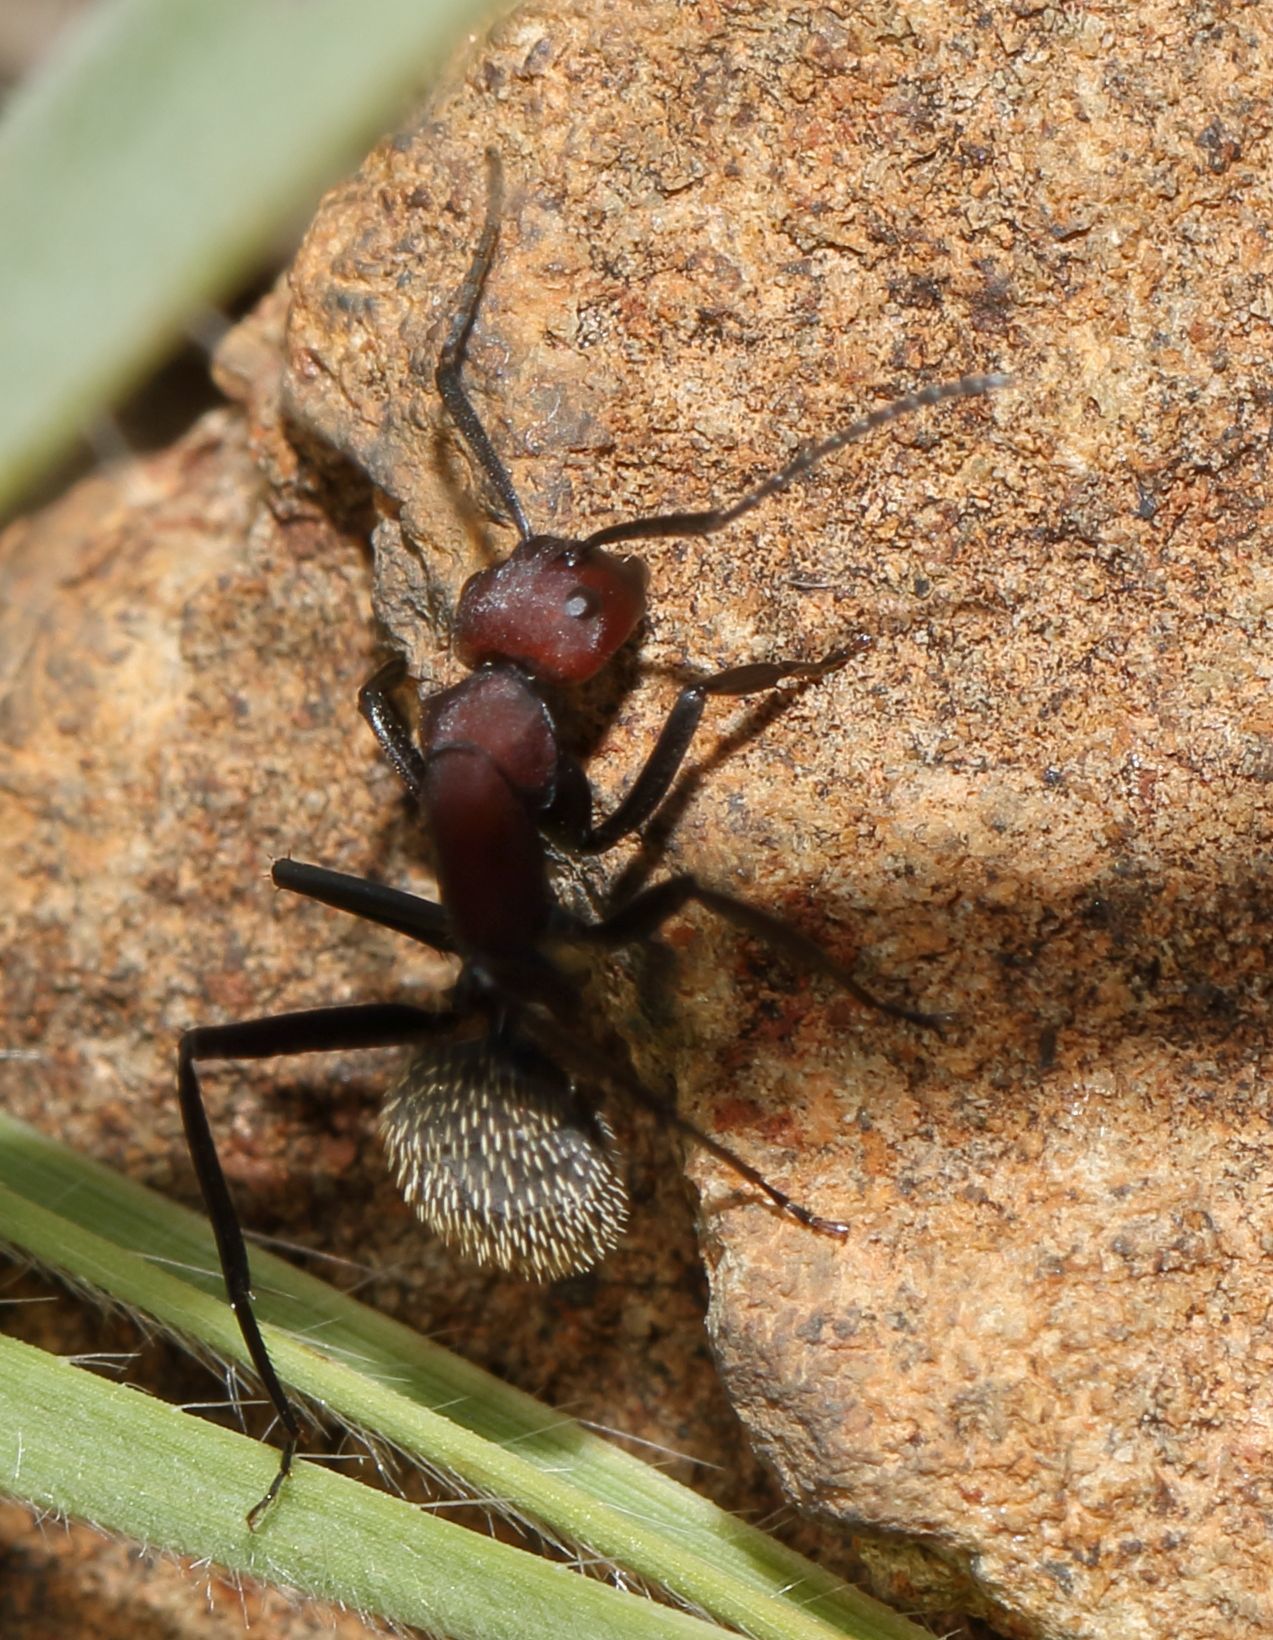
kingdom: Animalia
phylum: Arthropoda
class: Insecta
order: Hymenoptera
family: Formicidae
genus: Camponotus
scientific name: Camponotus brevisetosus
